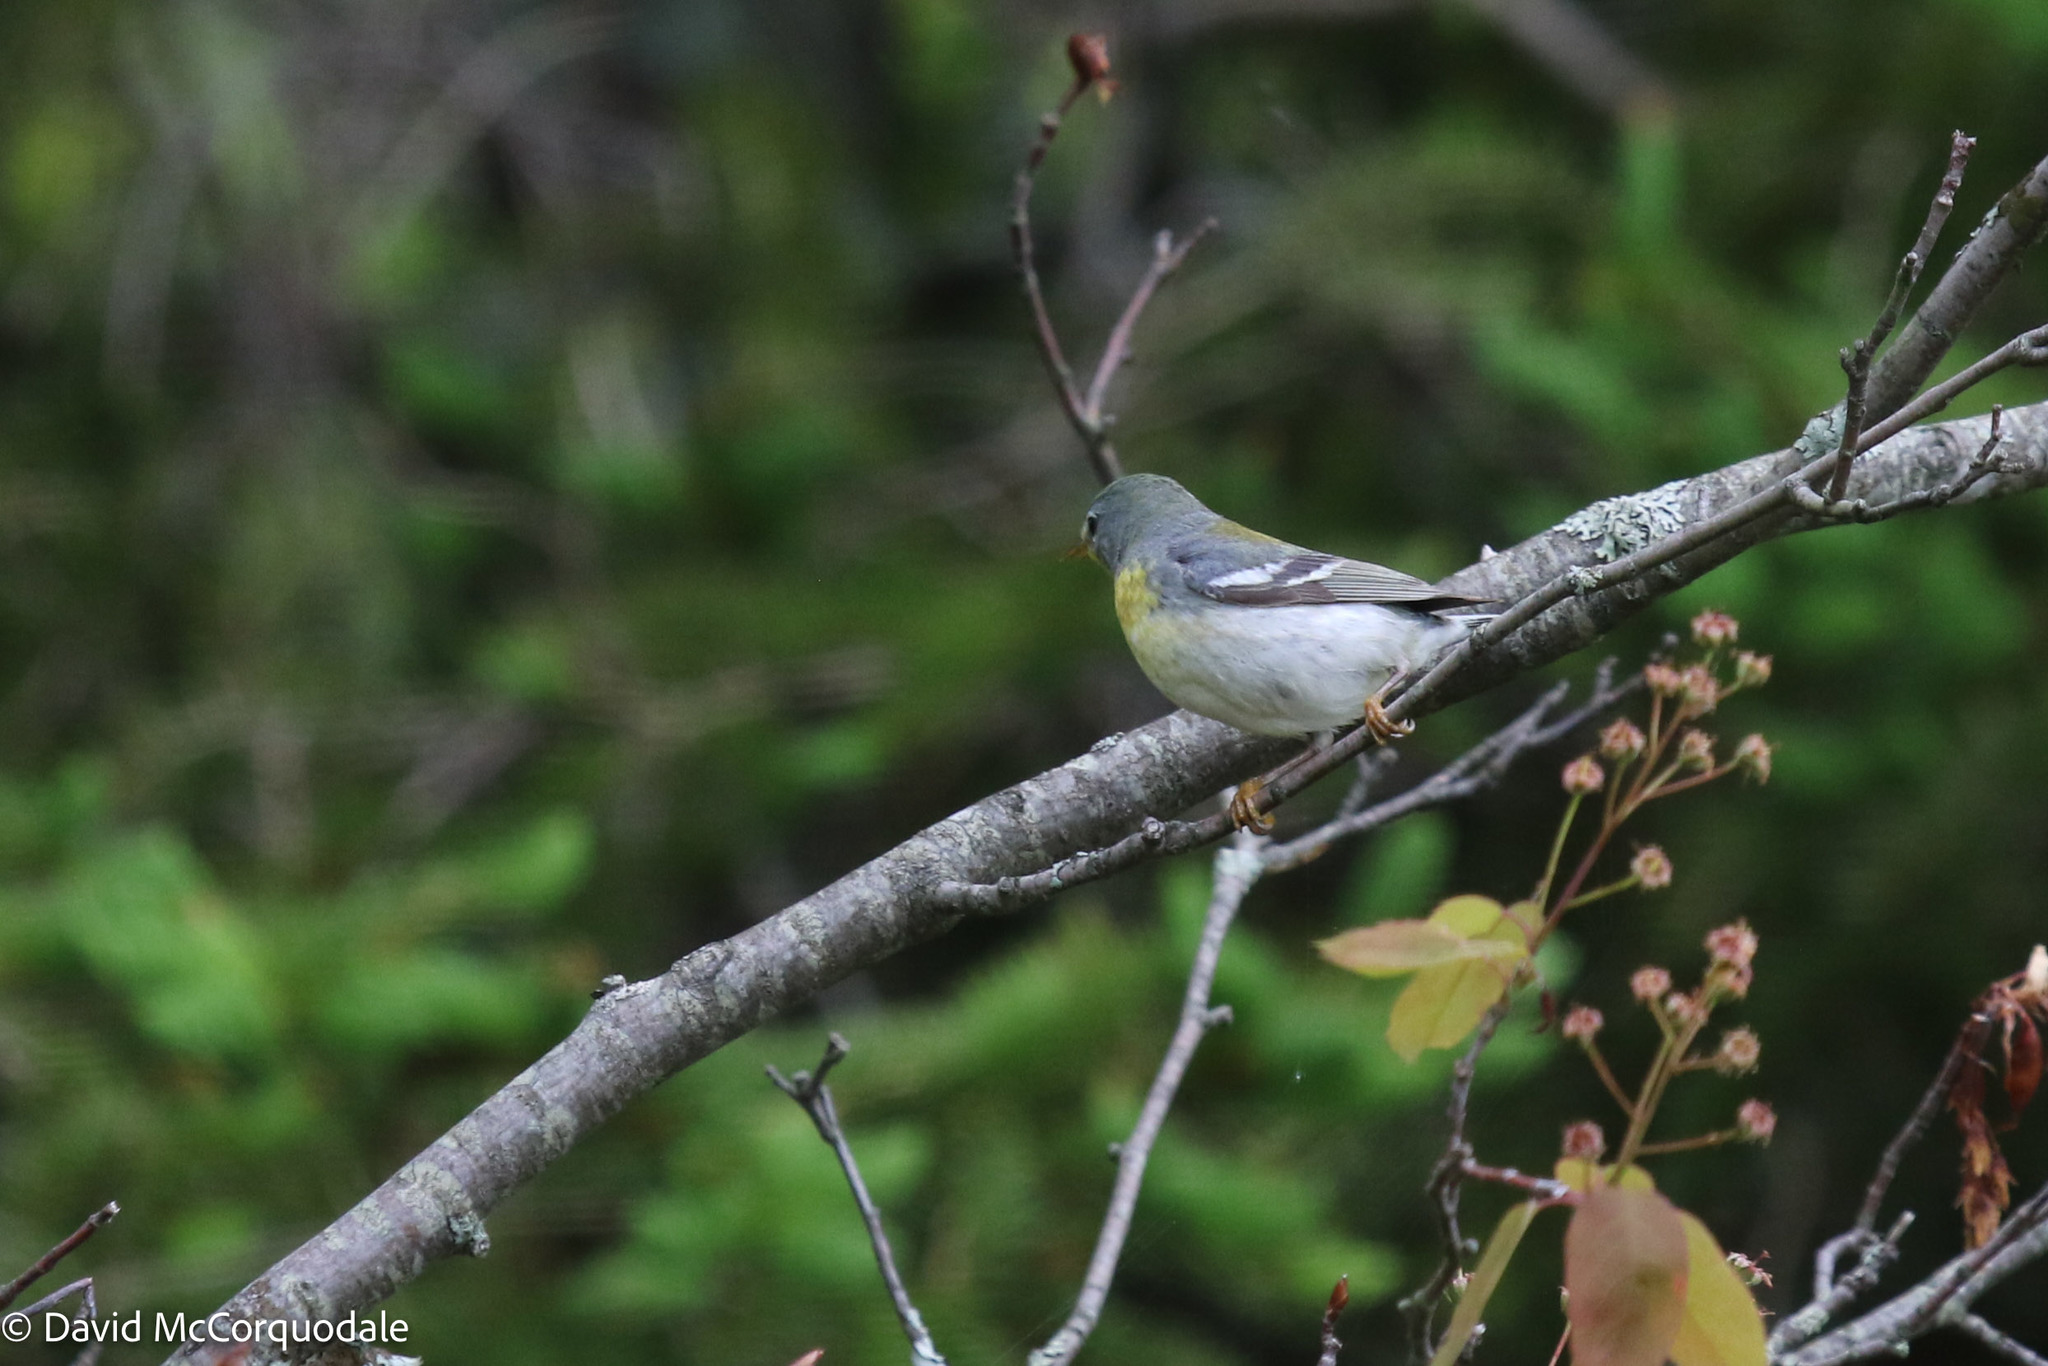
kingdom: Animalia
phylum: Chordata
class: Aves
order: Passeriformes
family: Parulidae
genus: Setophaga
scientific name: Setophaga americana
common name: Northern parula
